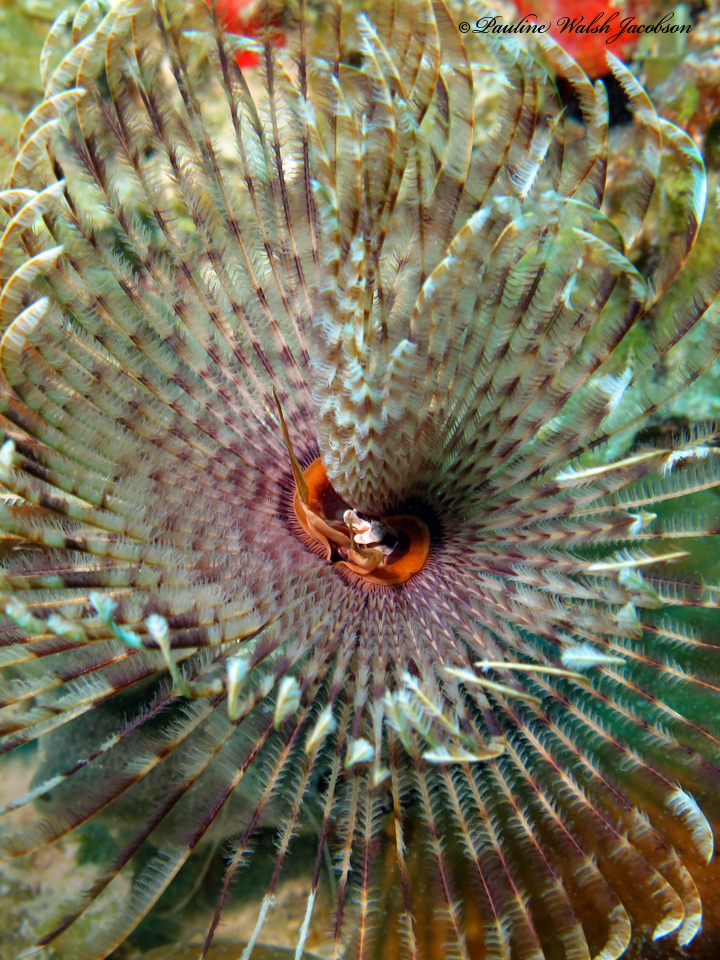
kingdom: Animalia
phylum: Annelida
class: Polychaeta
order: Sabellida
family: Sabellidae
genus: Sabellastarte
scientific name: Sabellastarte magnifica
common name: Giant feather-duster worm
